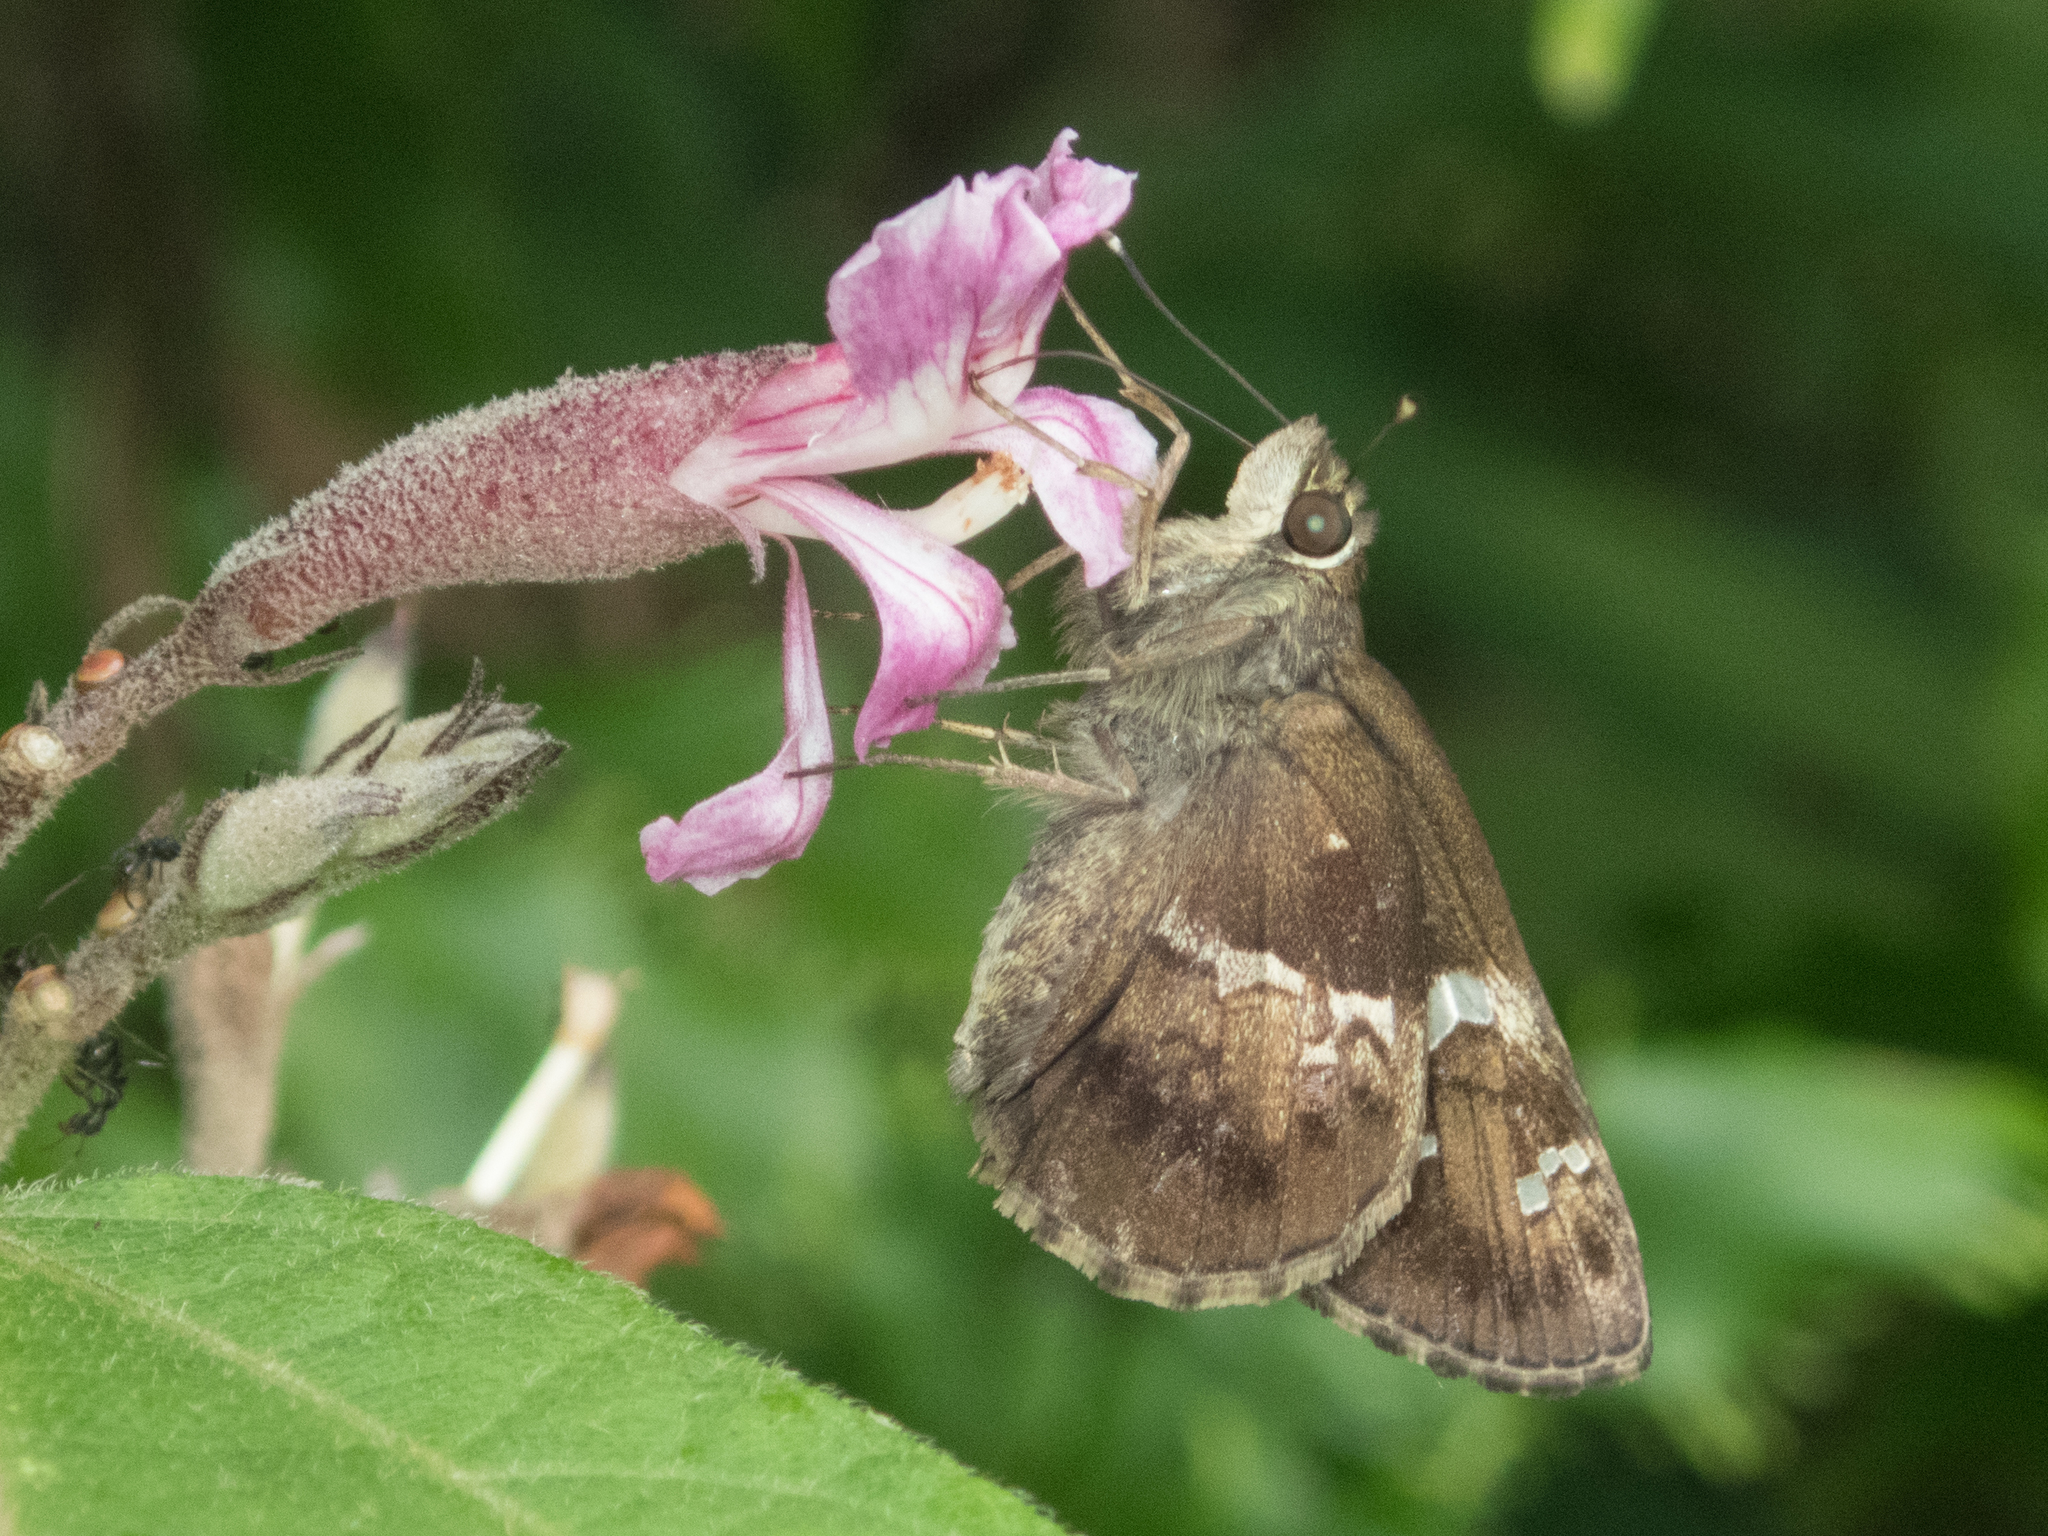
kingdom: Animalia
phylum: Arthropoda
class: Insecta
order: Lepidoptera
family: Hesperiidae
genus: Hyarotis
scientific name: Hyarotis adrastus
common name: Tree flitter
